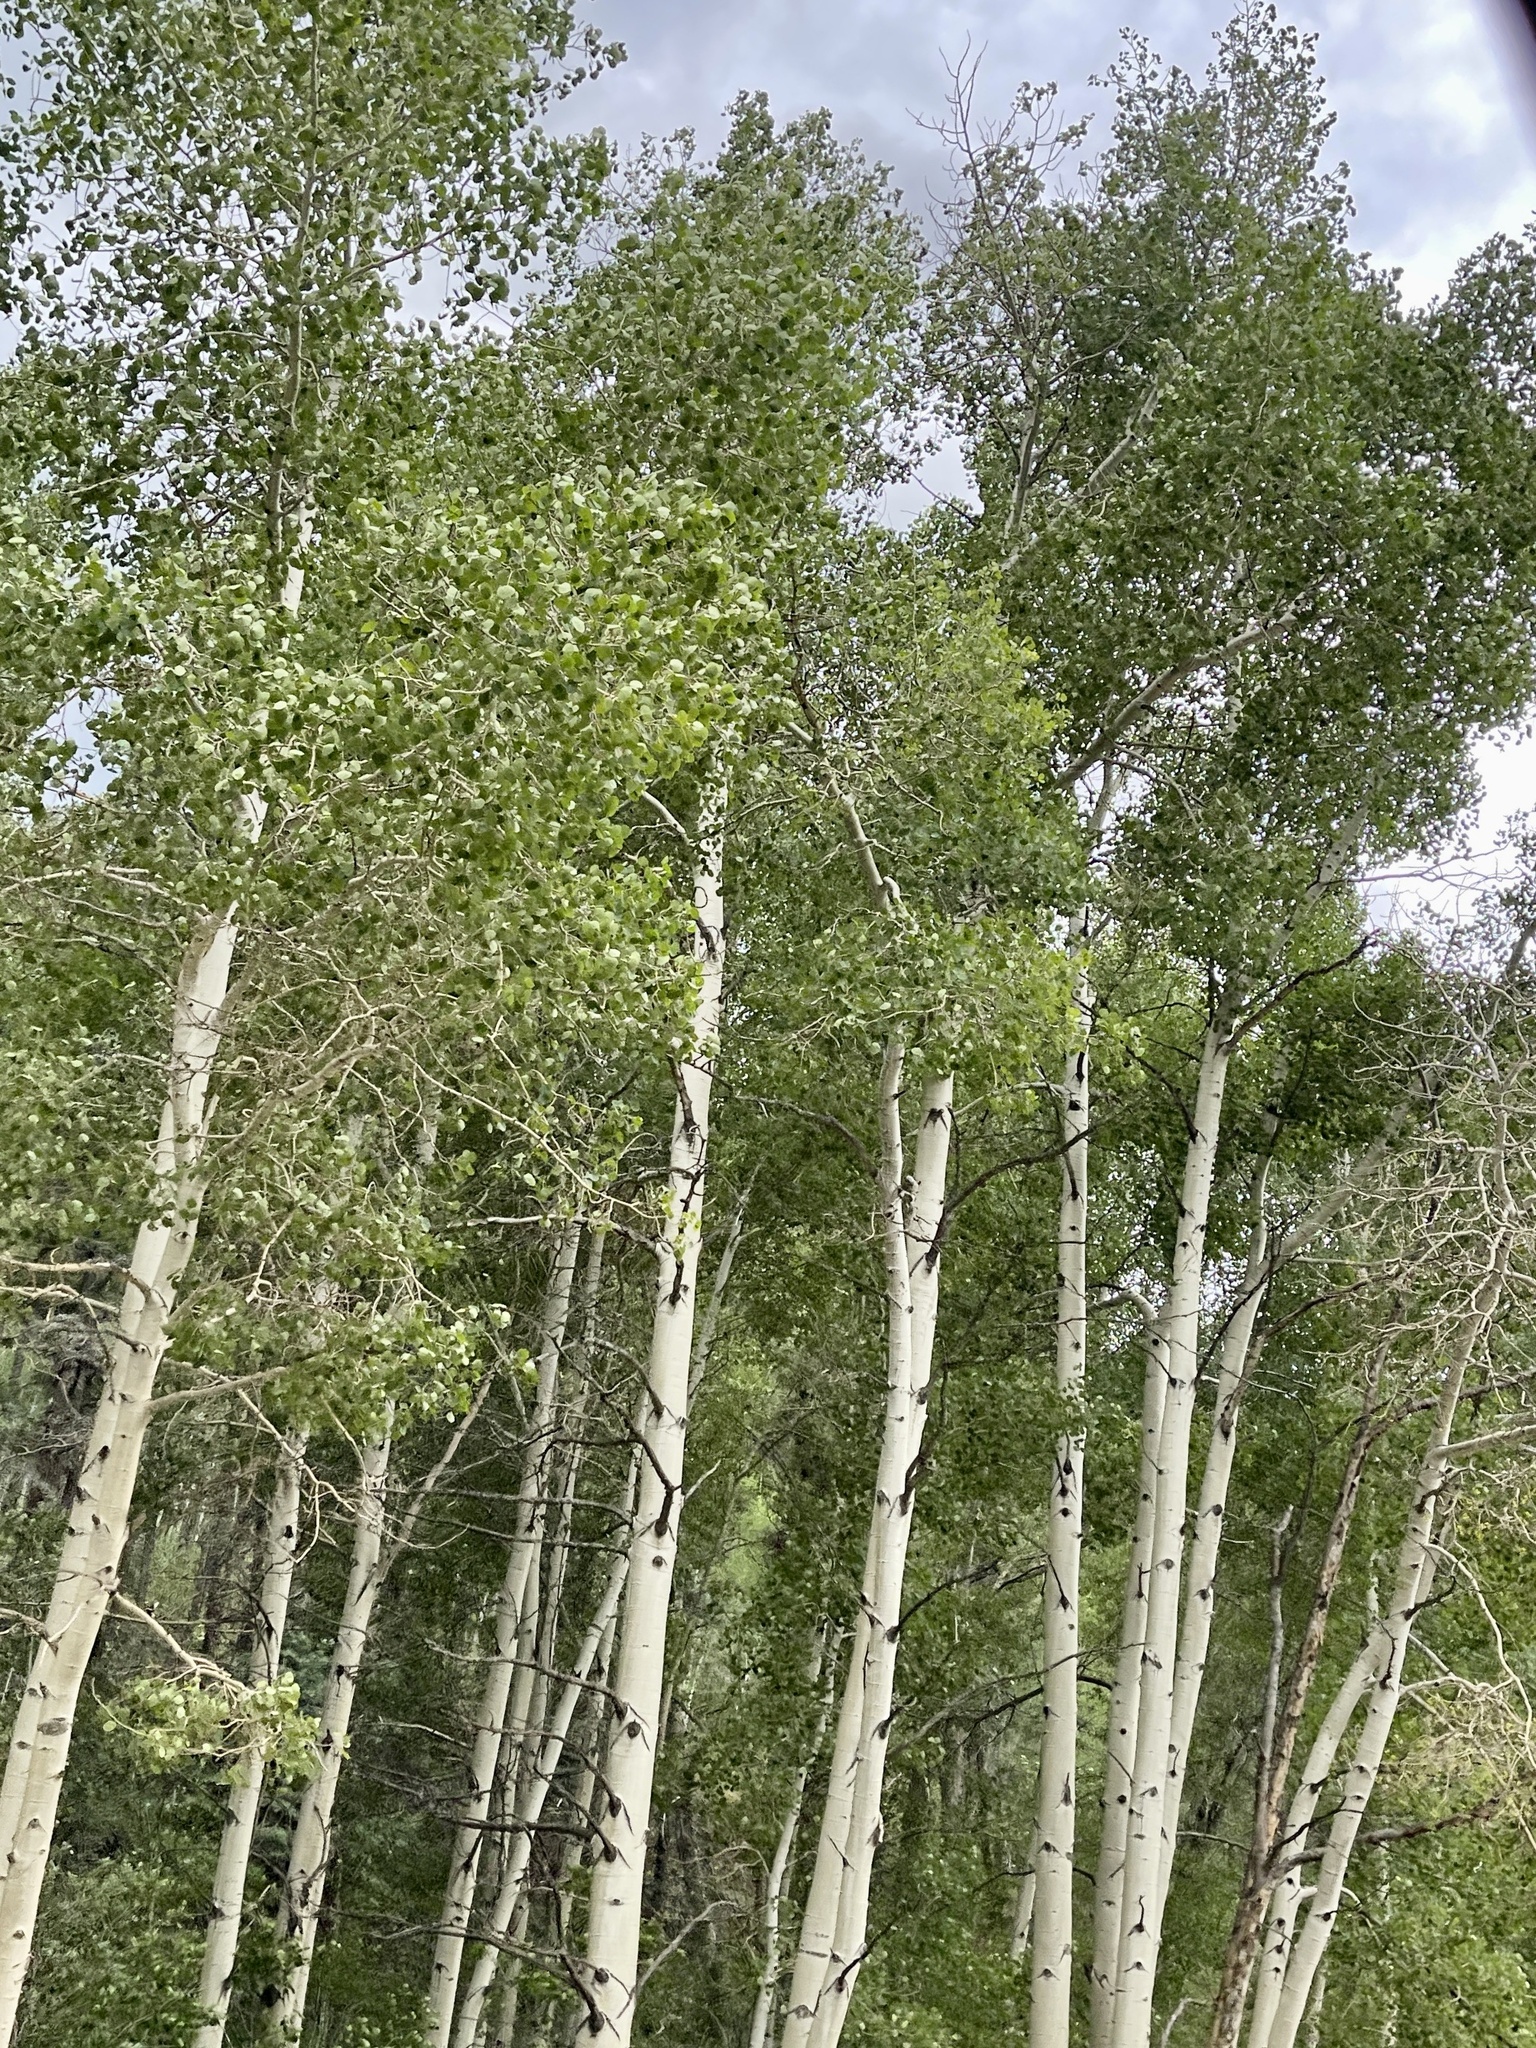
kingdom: Plantae
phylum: Tracheophyta
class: Magnoliopsida
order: Malpighiales
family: Salicaceae
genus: Populus
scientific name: Populus tremuloides
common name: Quaking aspen
